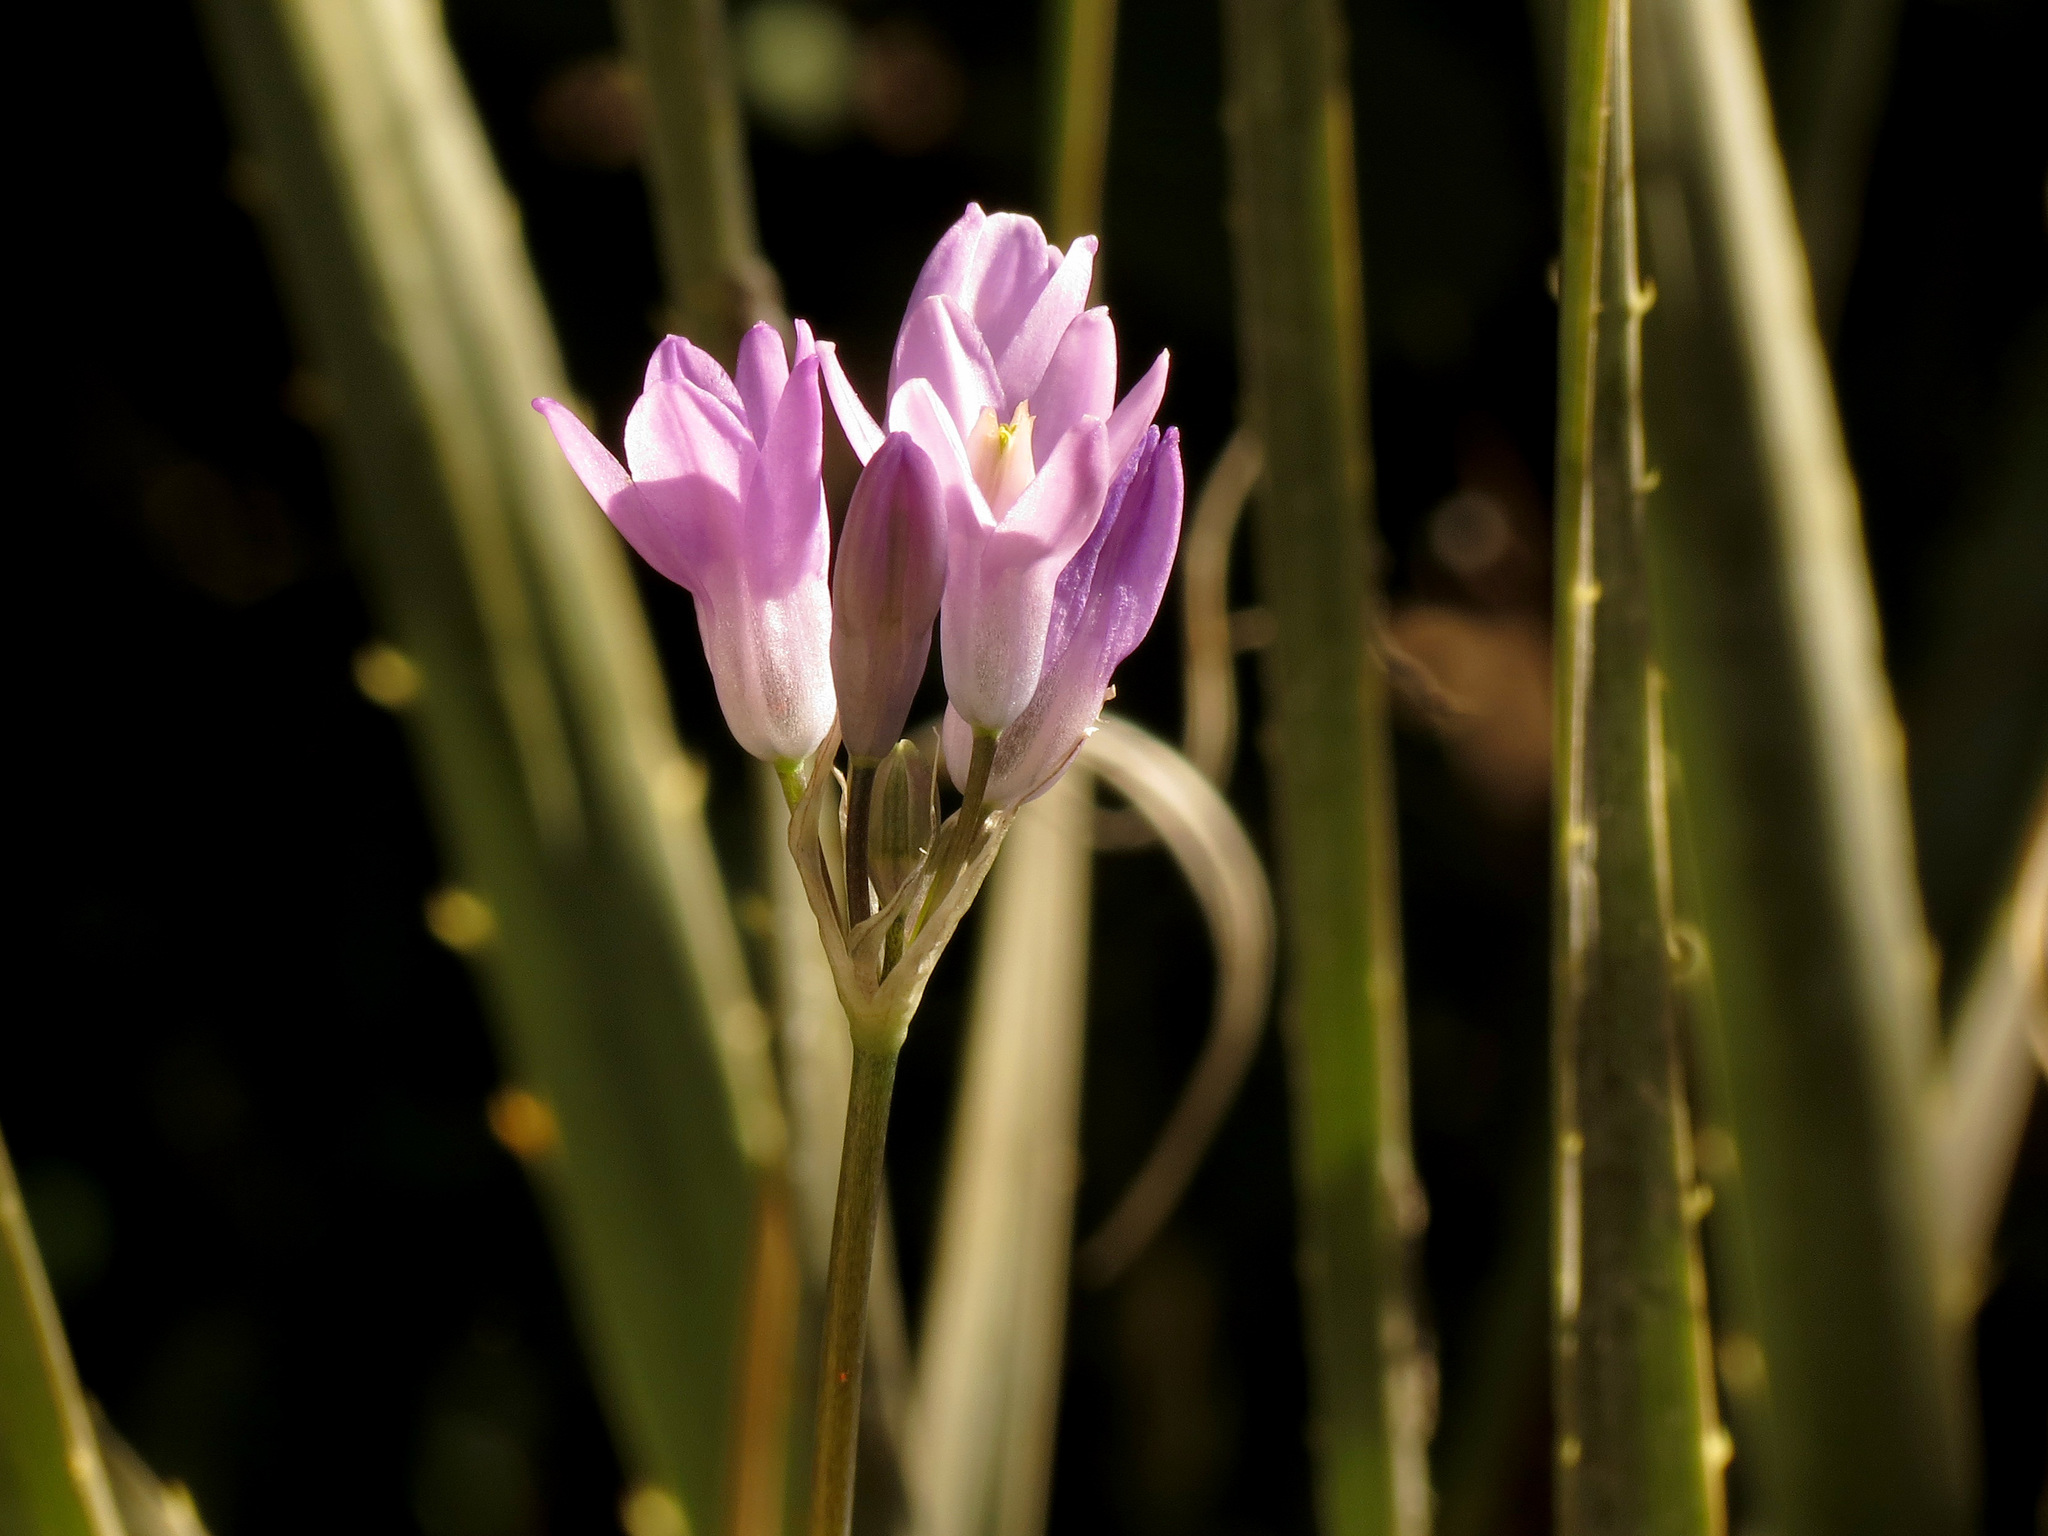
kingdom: Plantae
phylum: Tracheophyta
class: Liliopsida
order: Asparagales
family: Asparagaceae
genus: Dipterostemon
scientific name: Dipterostemon capitatus
